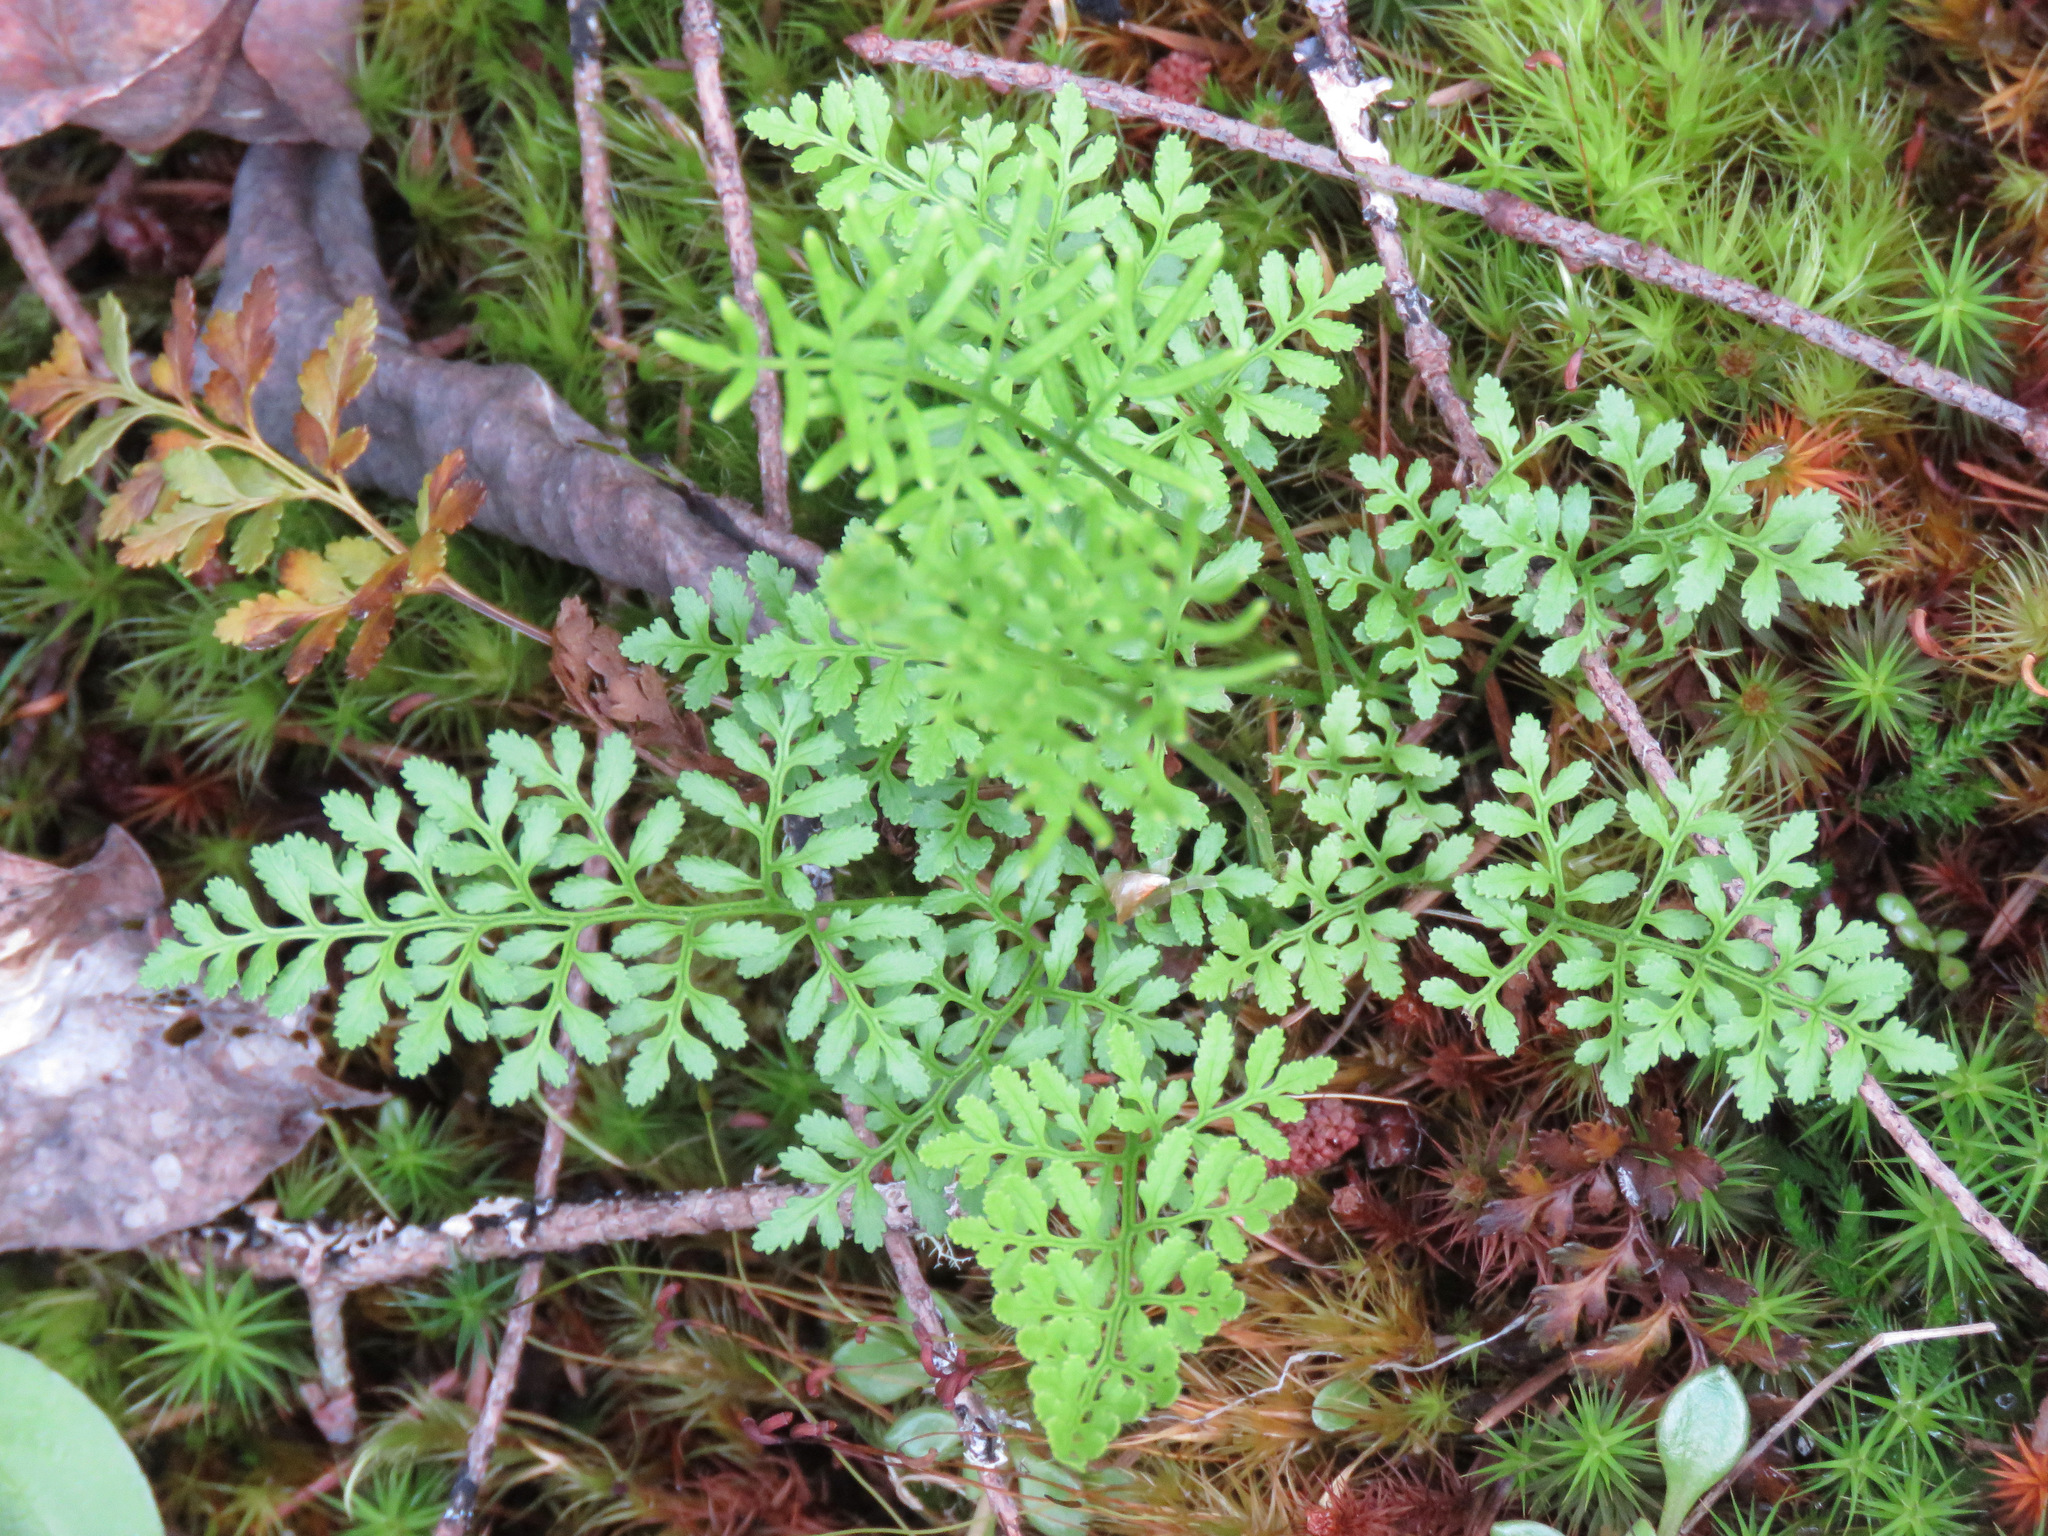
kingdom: Plantae
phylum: Tracheophyta
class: Polypodiopsida
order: Polypodiales
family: Pteridaceae
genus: Cryptogramma
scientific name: Cryptogramma acrostichoides
